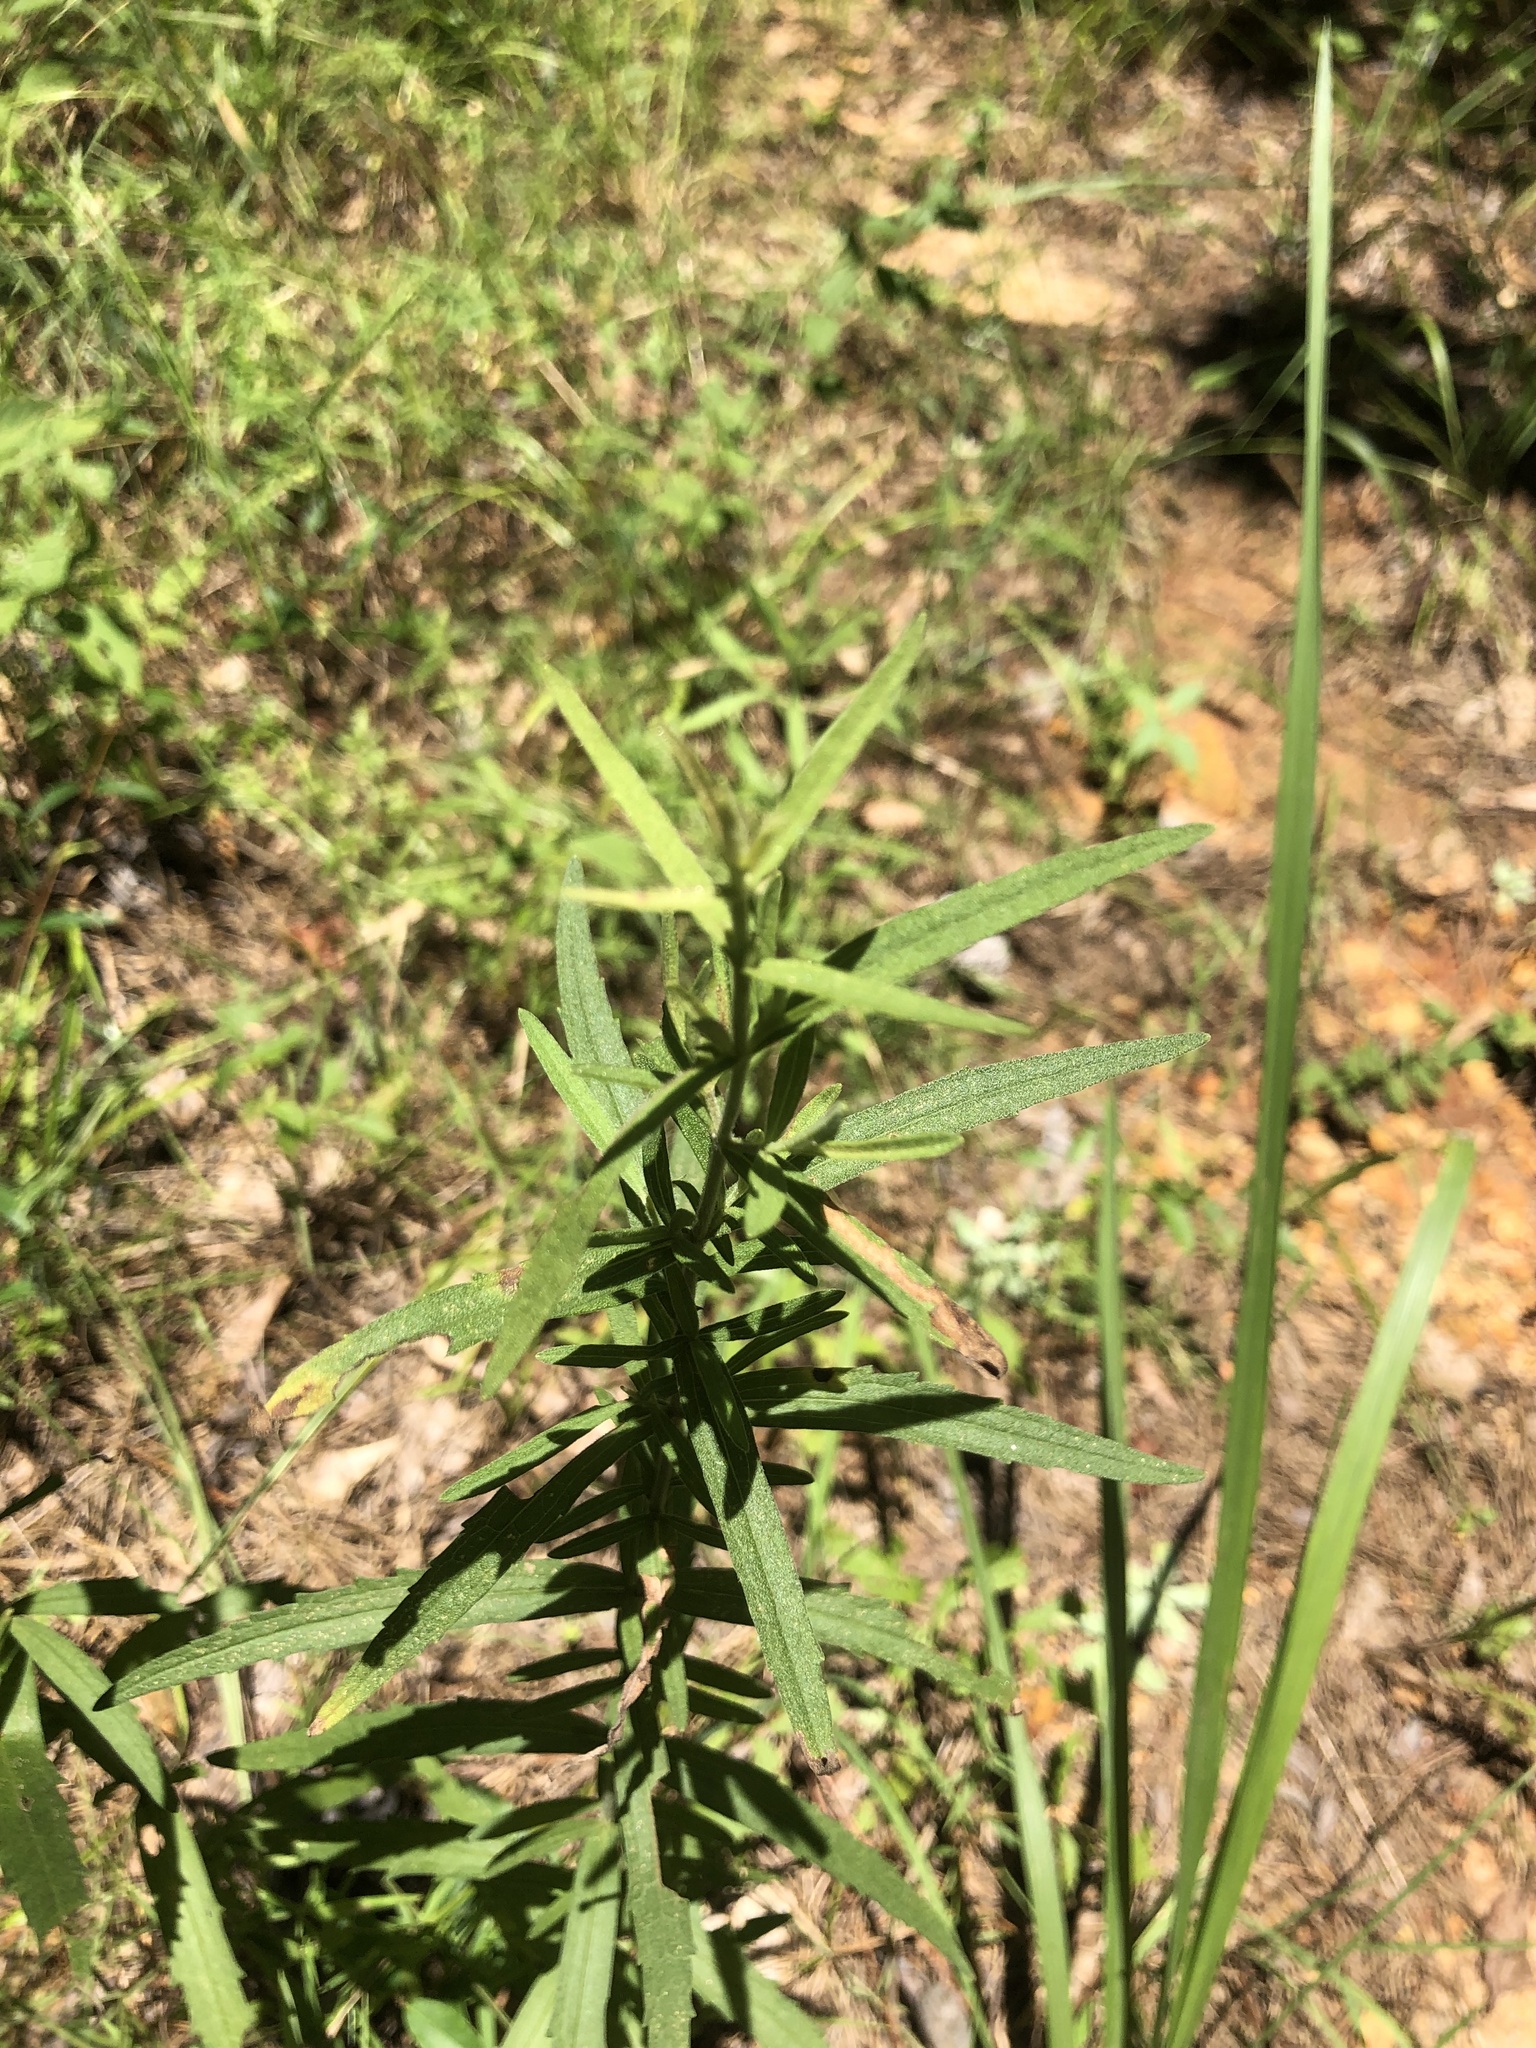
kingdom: Plantae
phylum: Tracheophyta
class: Magnoliopsida
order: Asterales
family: Asteraceae
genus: Eupatorium
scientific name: Eupatorium torreyanum
